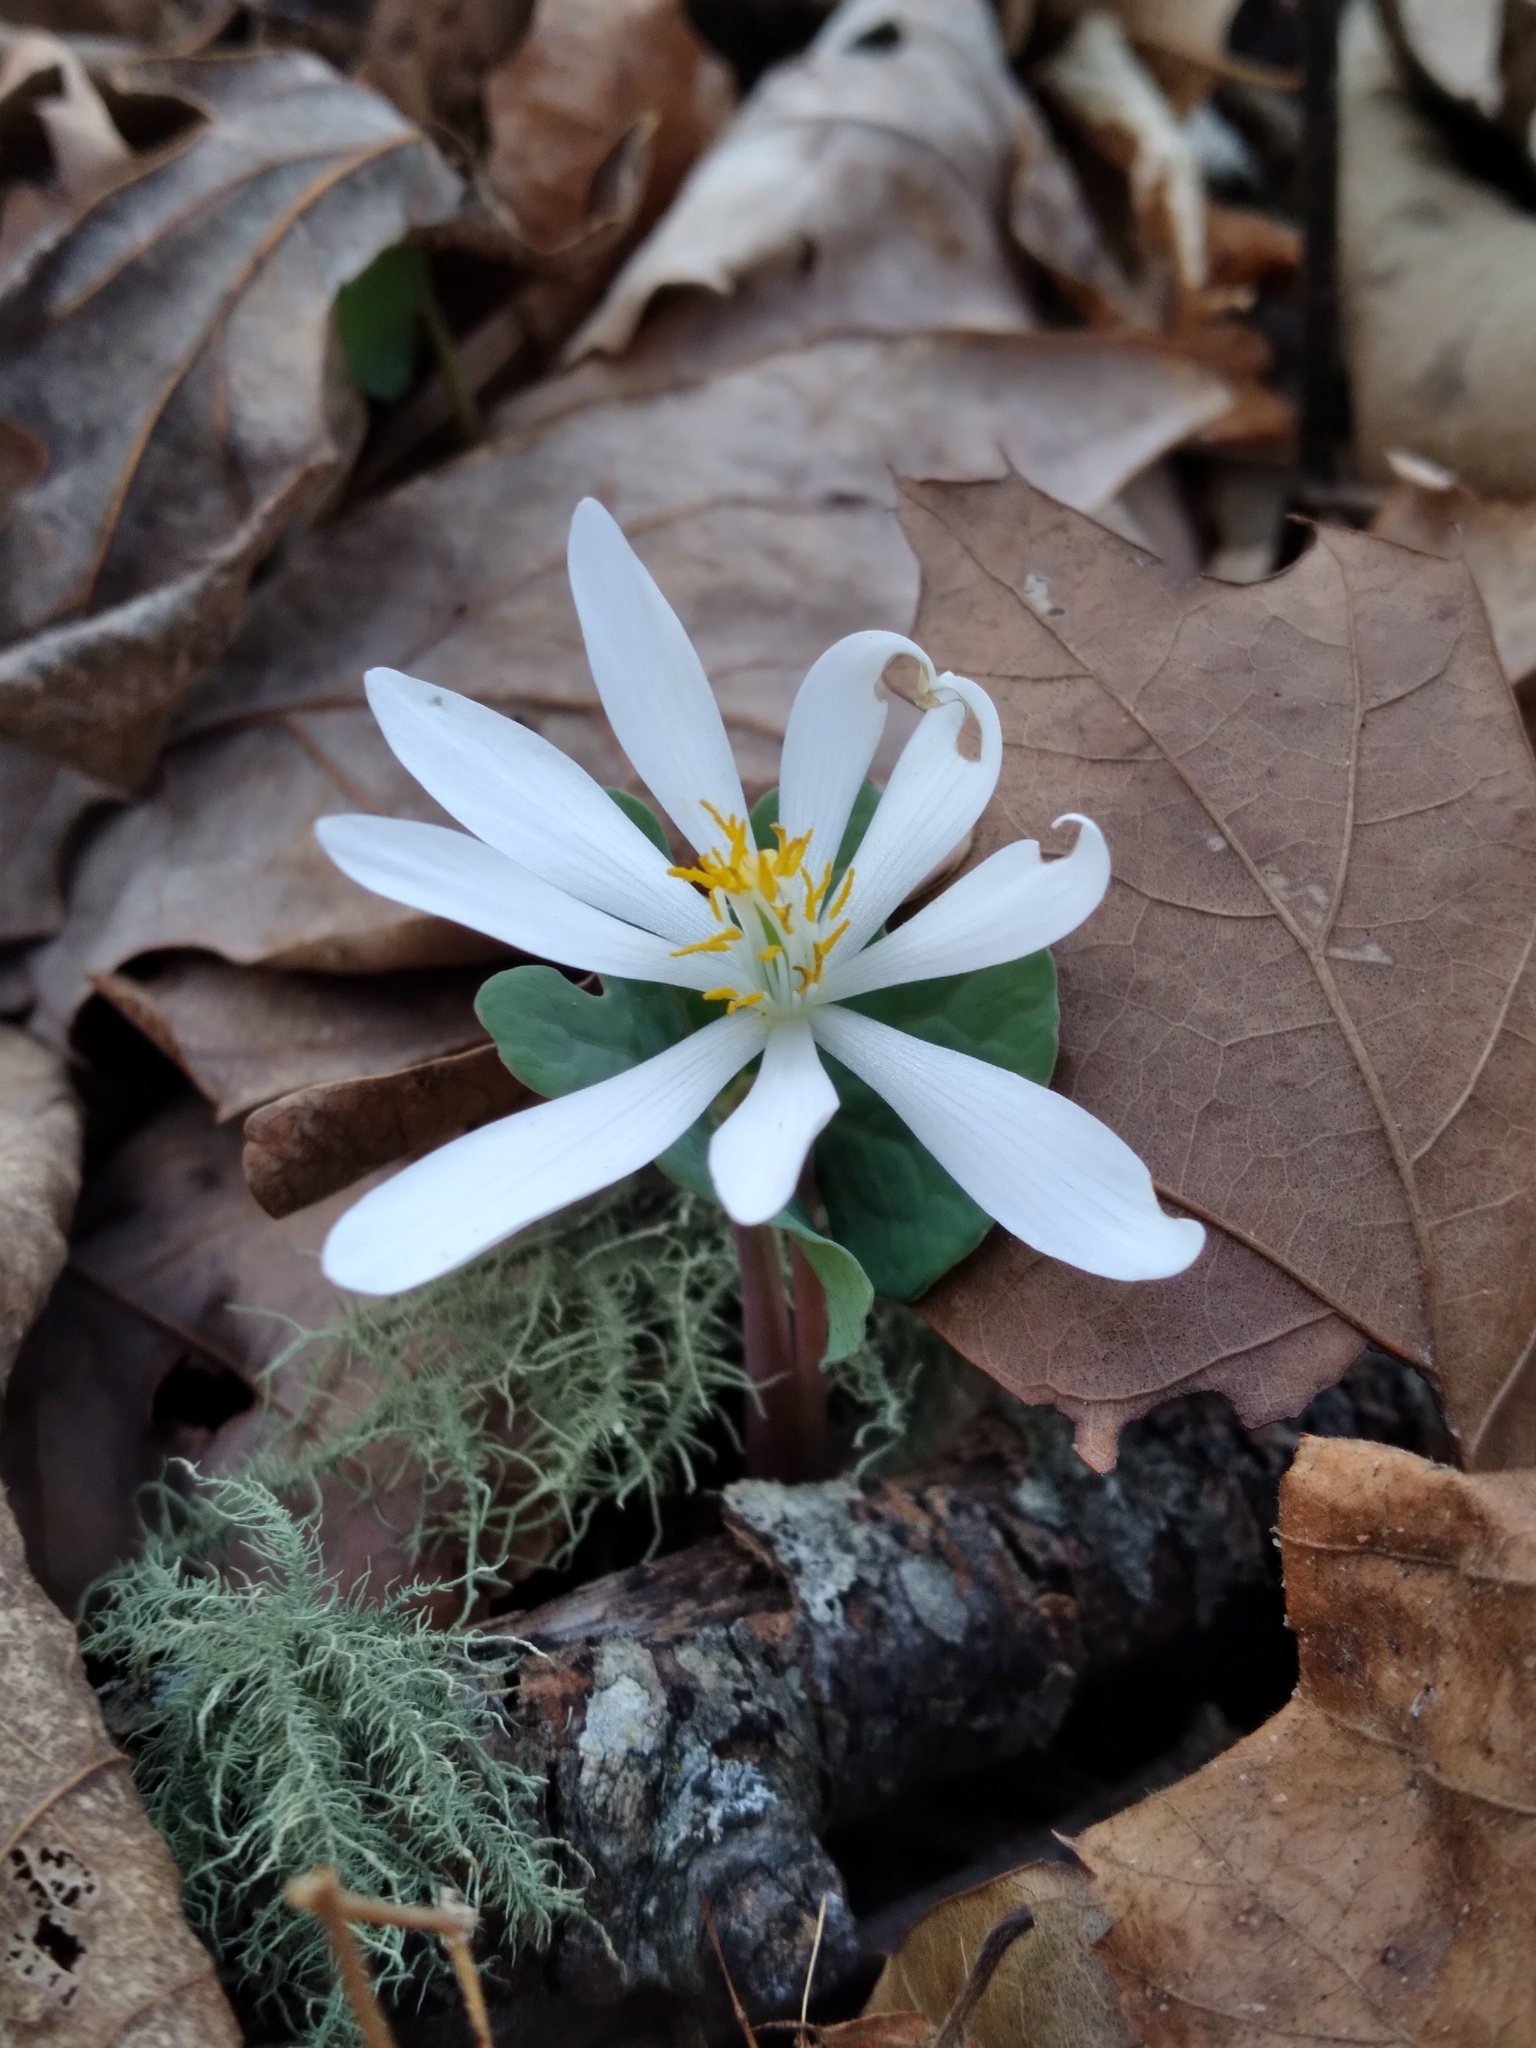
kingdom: Plantae
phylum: Tracheophyta
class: Magnoliopsida
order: Ranunculales
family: Papaveraceae
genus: Sanguinaria
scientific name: Sanguinaria canadensis
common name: Bloodroot
